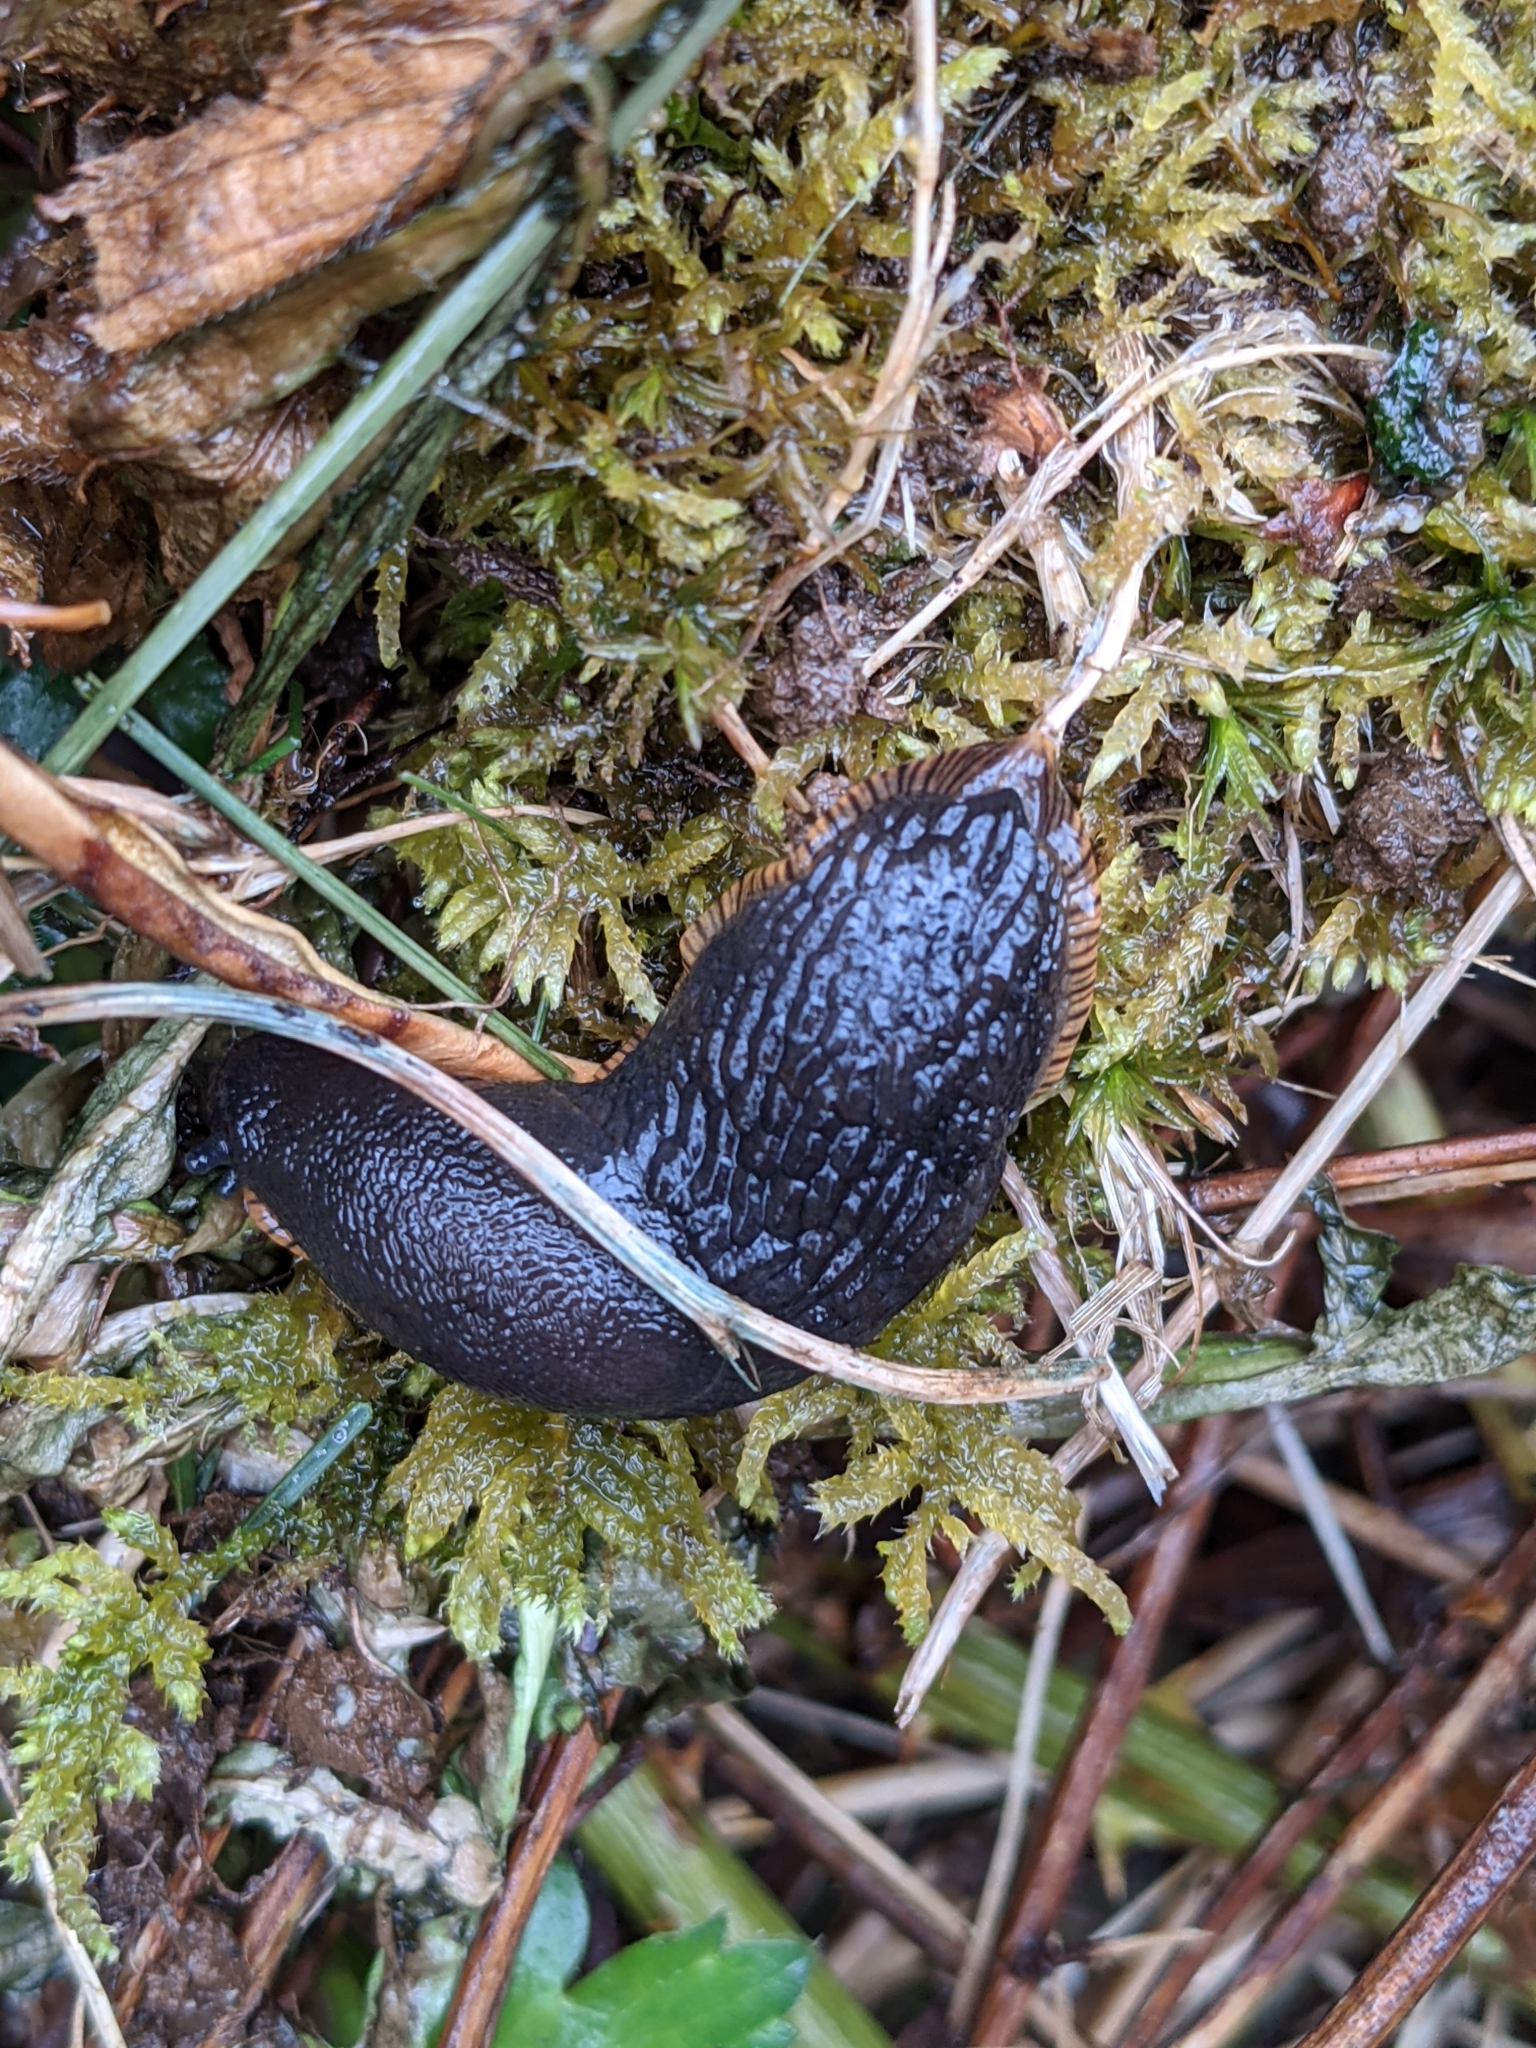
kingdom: Animalia
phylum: Mollusca
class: Gastropoda
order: Stylommatophora
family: Arionidae
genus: Arion
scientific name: Arion rufus
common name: Chocolate arion
